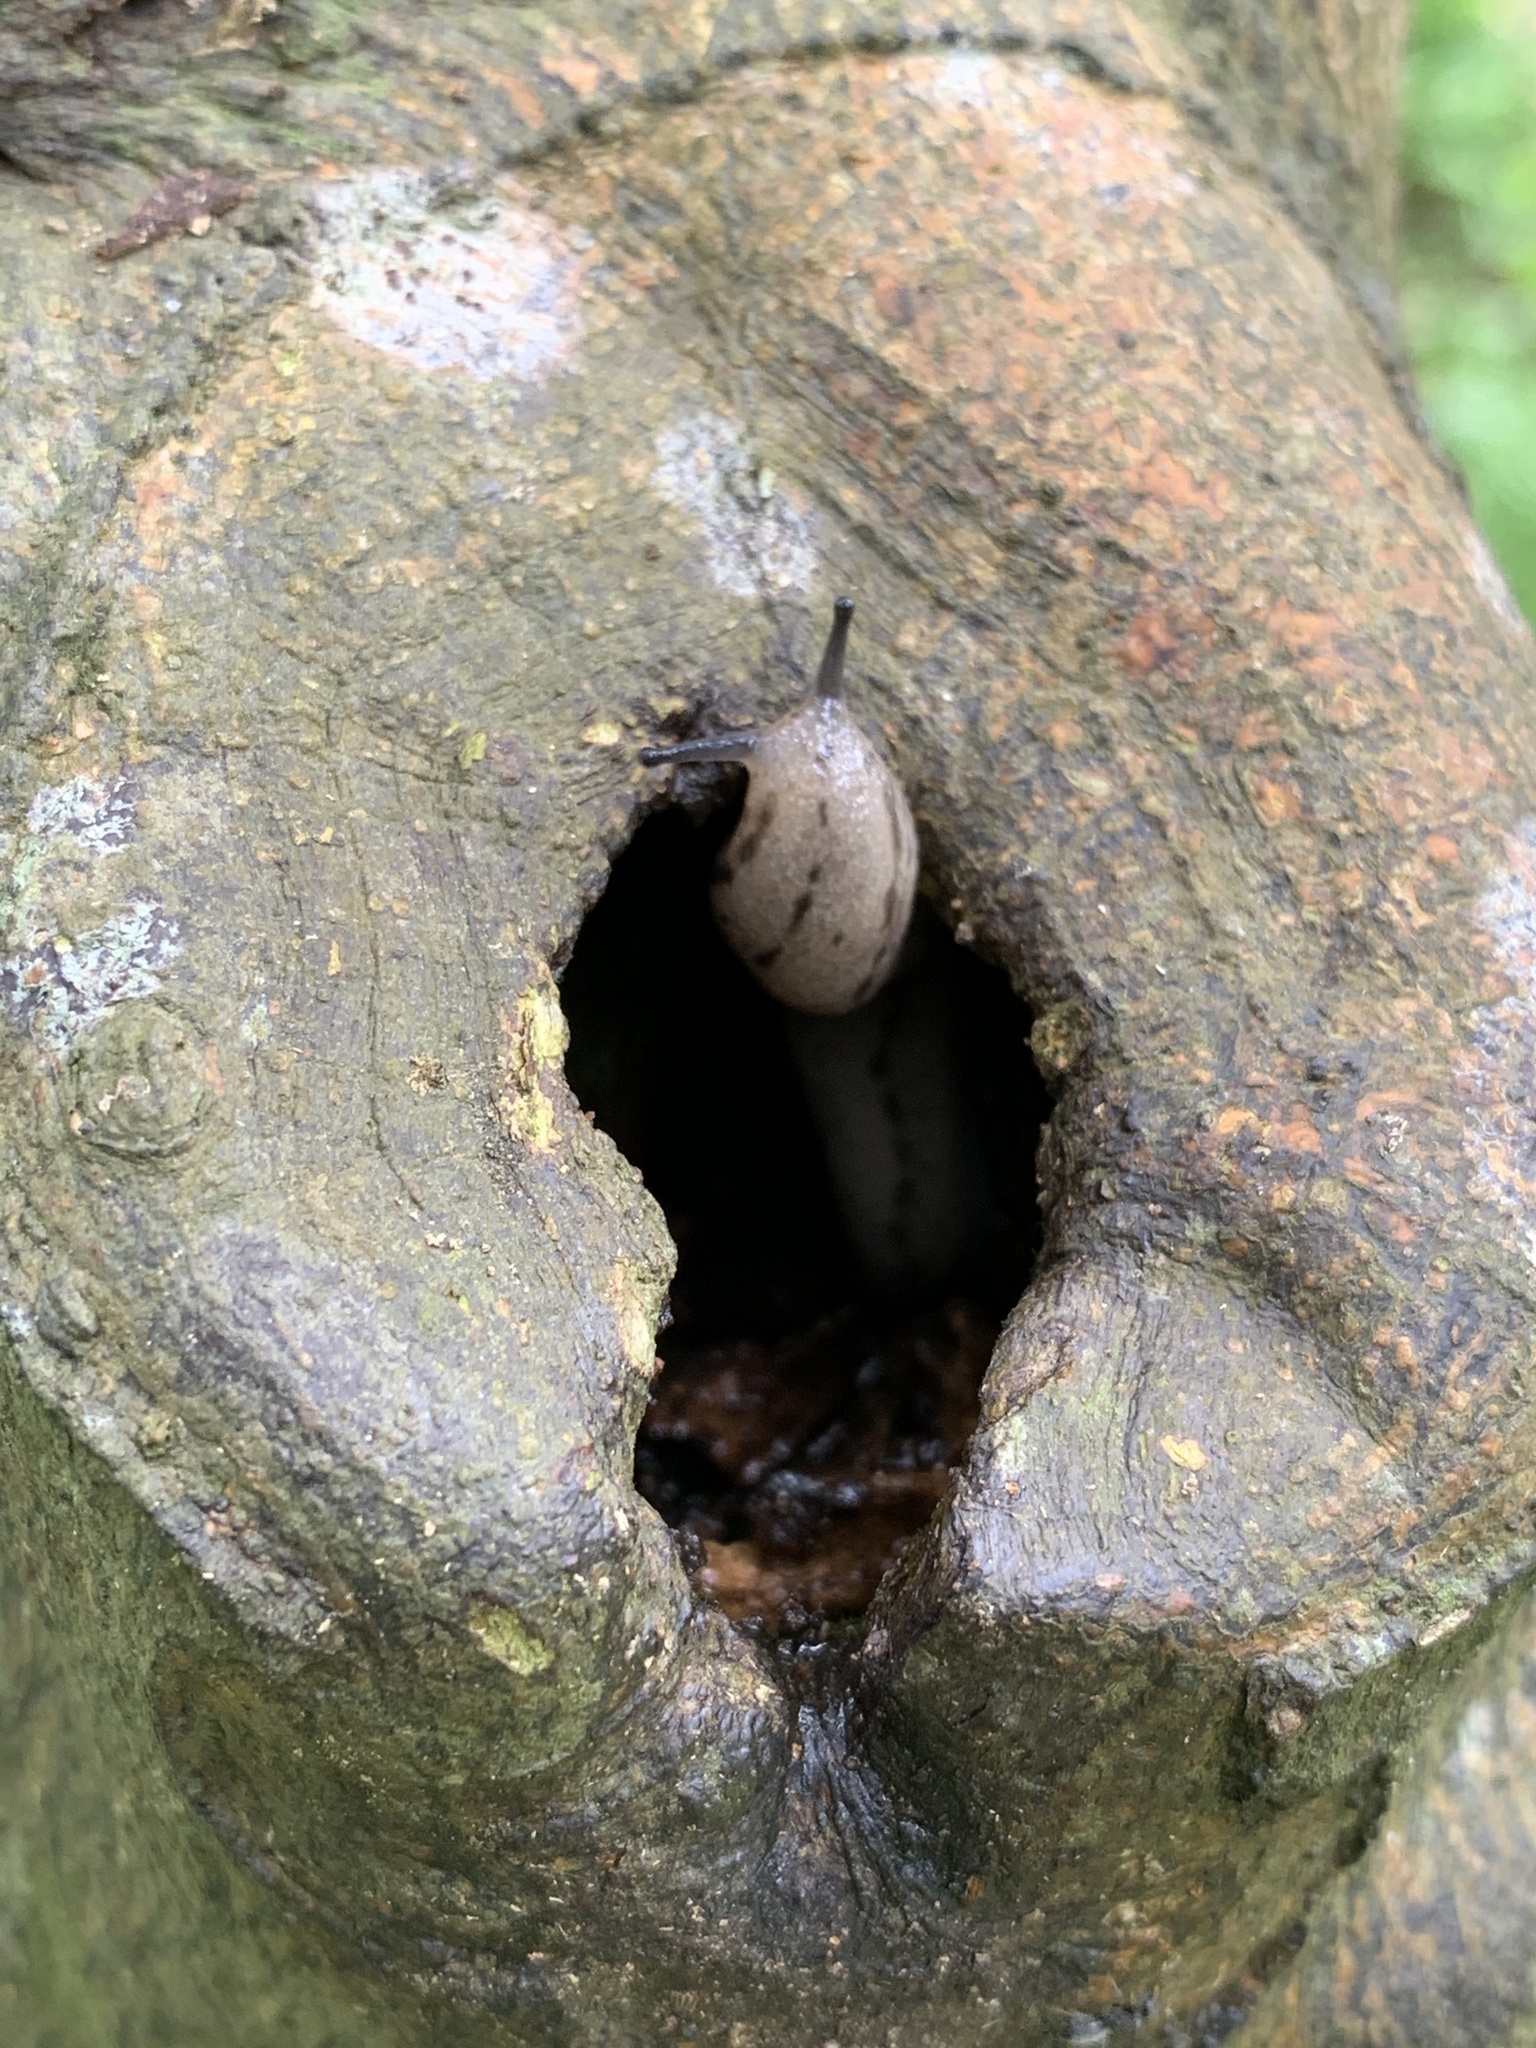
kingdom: Animalia
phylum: Mollusca
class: Gastropoda
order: Stylommatophora
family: Philomycidae
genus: Meghimatium
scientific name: Meghimatium bilineatum
